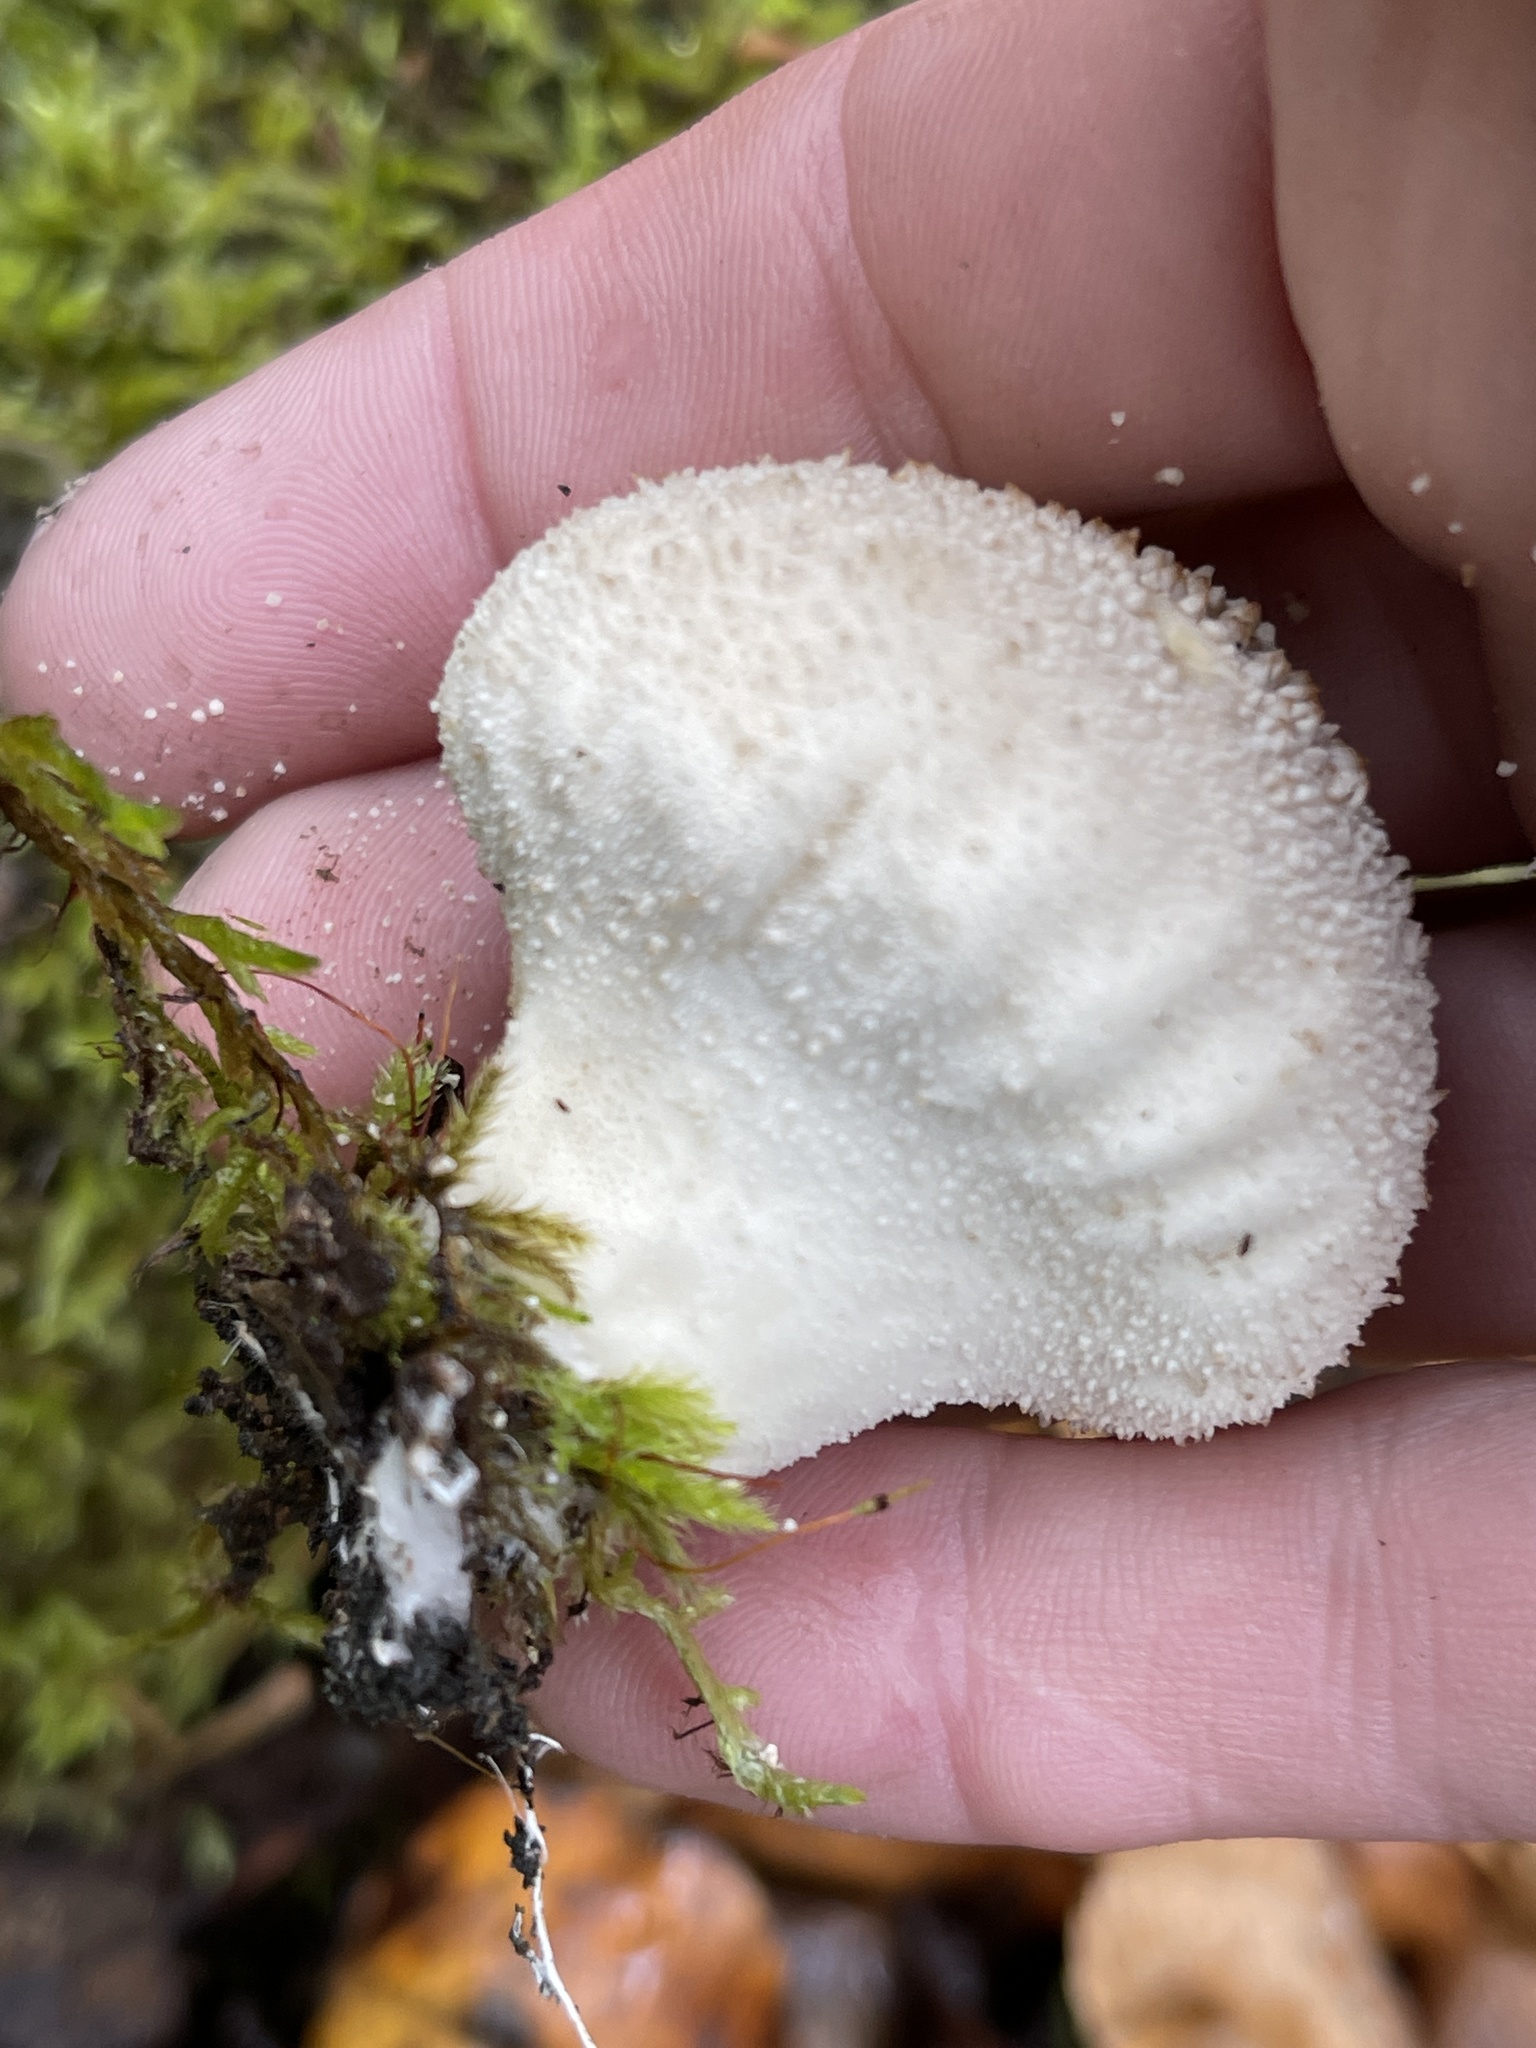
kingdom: Fungi
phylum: Basidiomycota
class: Agaricomycetes
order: Agaricales
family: Agaricaceae
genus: Lycoperdon
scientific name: Lycoperdon marginatum
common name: Peeling puffball
